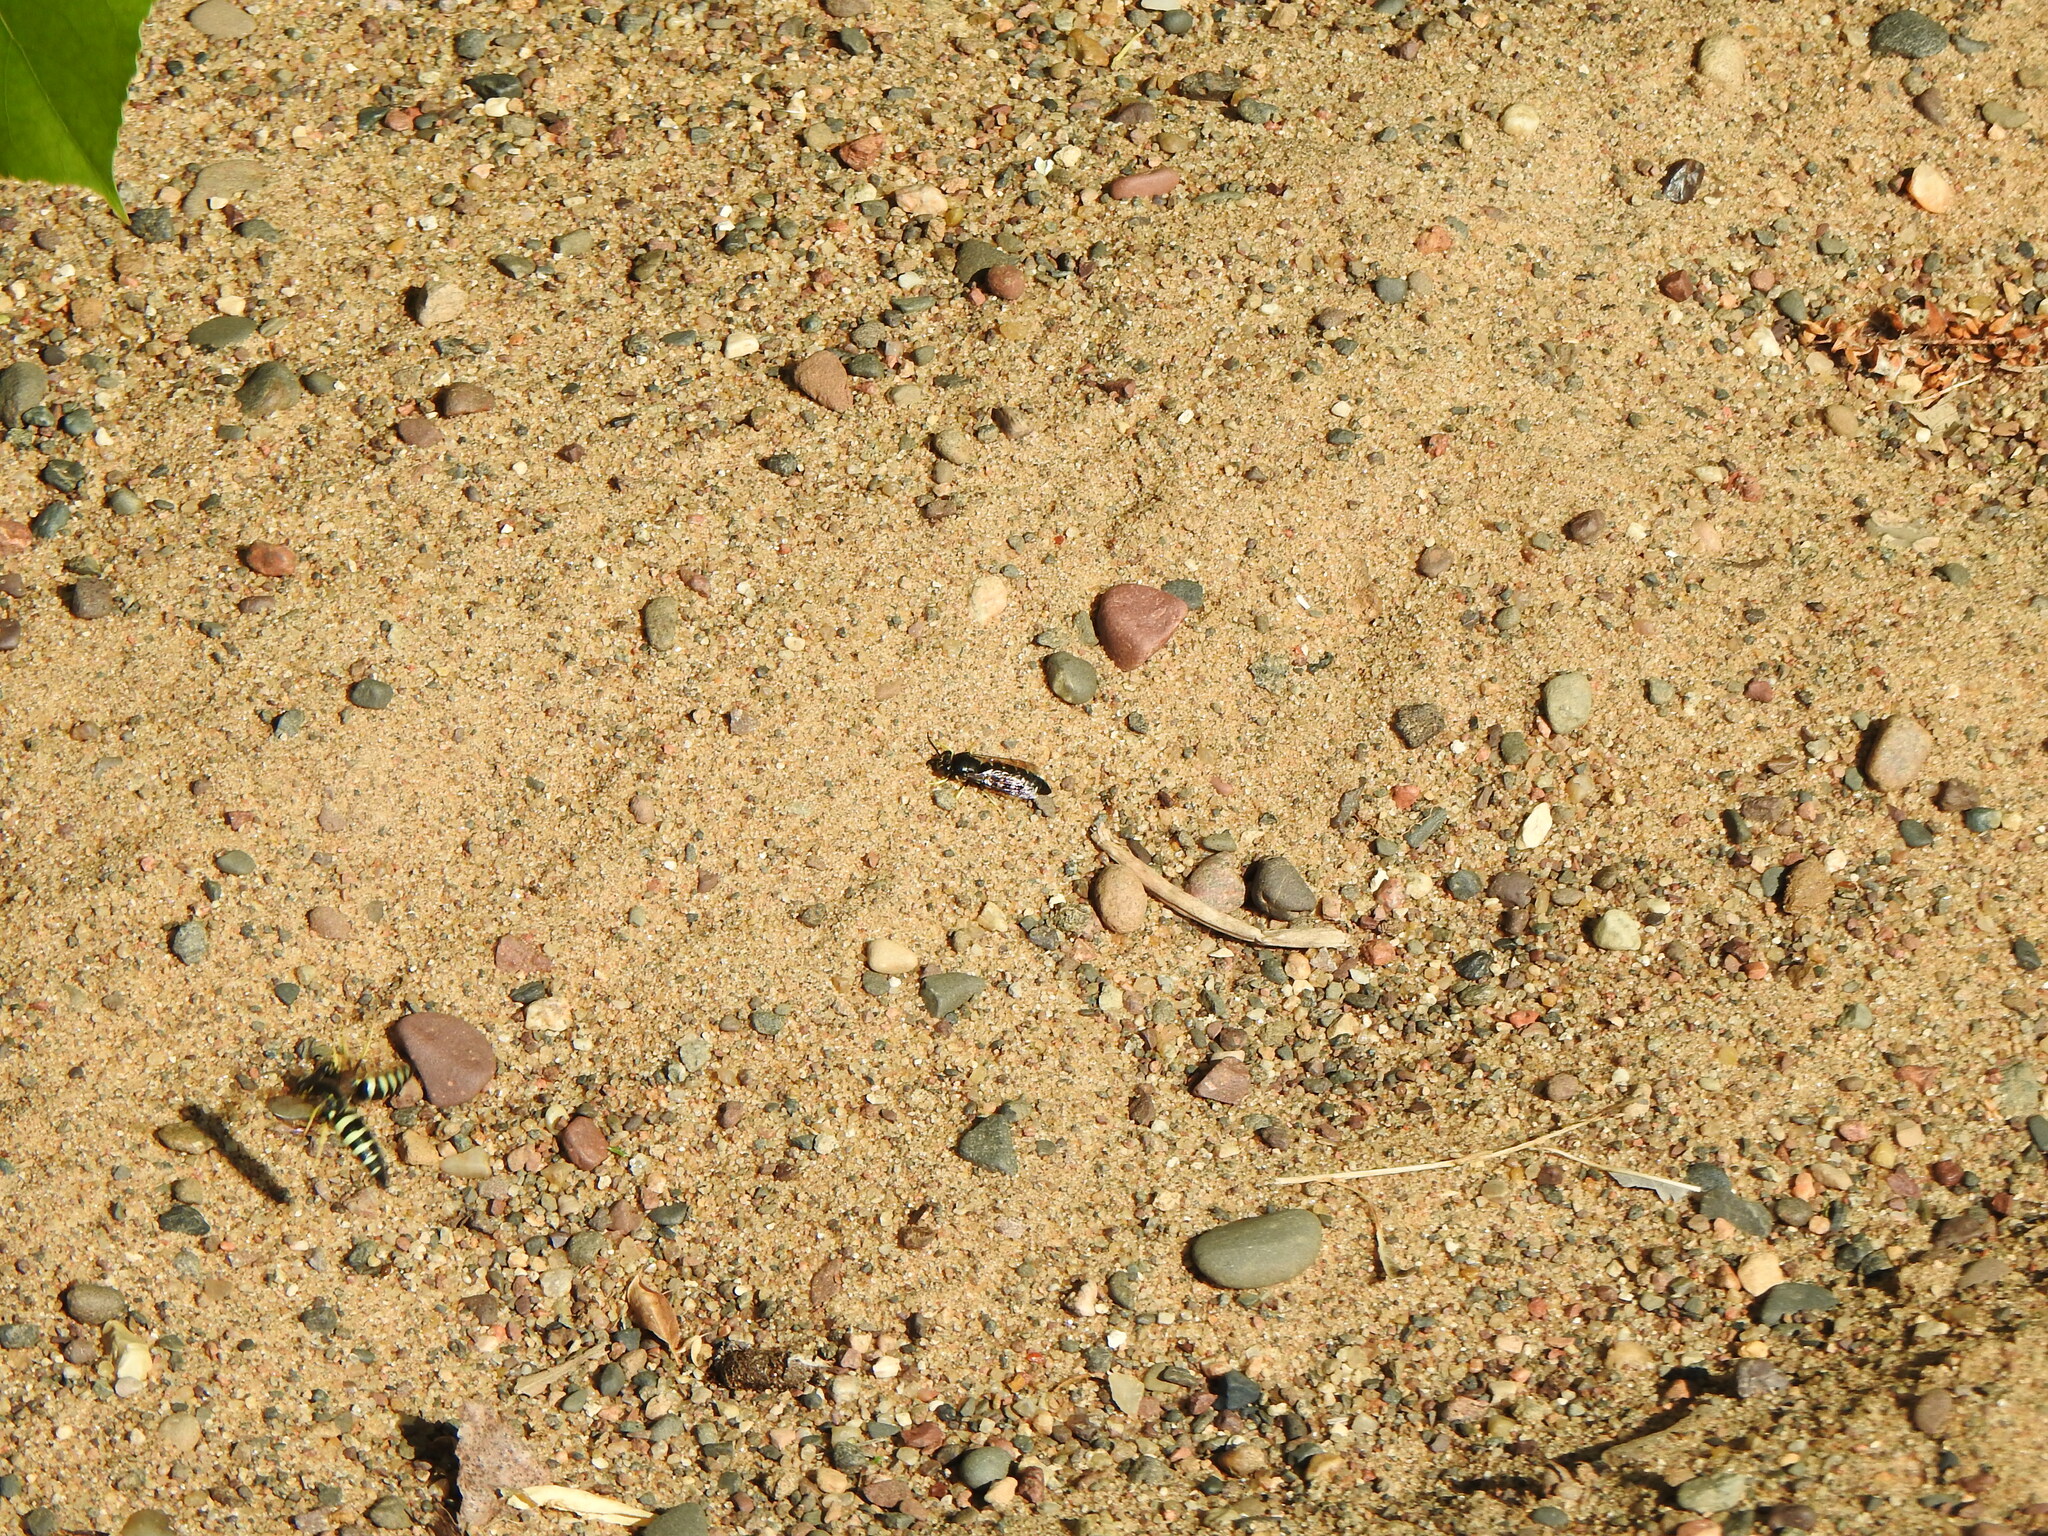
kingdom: Animalia
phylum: Arthropoda
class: Insecta
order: Hymenoptera
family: Crabronidae
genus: Bicyrtes
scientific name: Bicyrtes quadrifasciatus
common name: Four-banded stink bug hunter wasp
